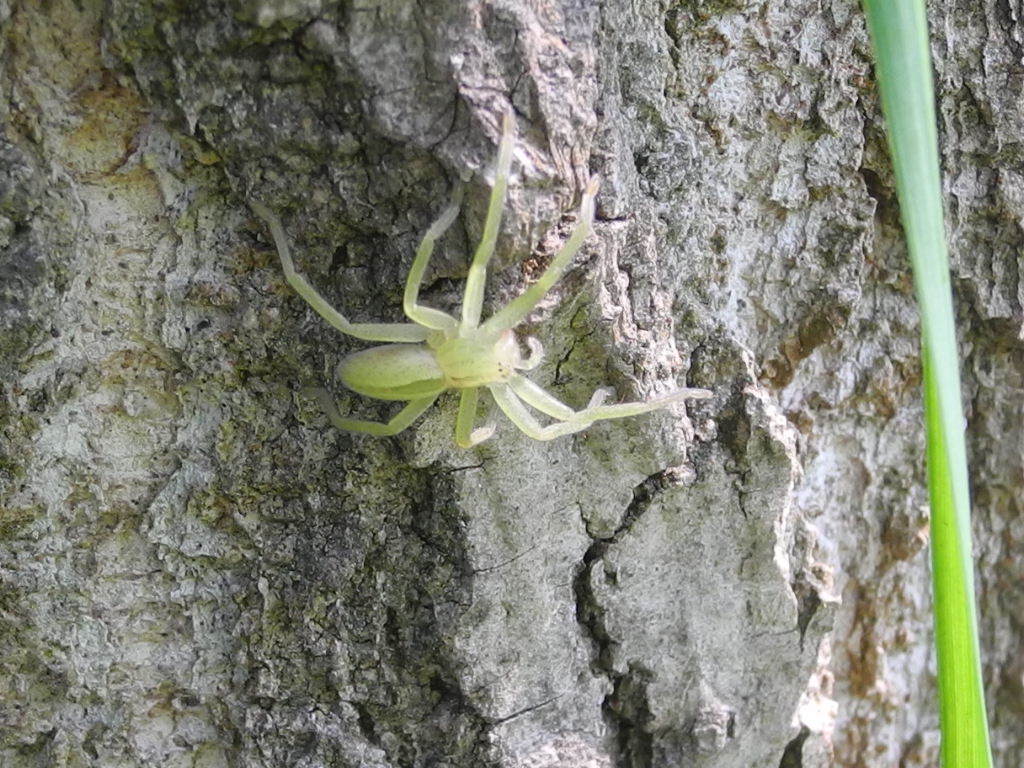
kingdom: Animalia
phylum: Arthropoda
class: Arachnida
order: Araneae
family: Sparassidae
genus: Micrommata
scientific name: Micrommata virescens
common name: Green spider
